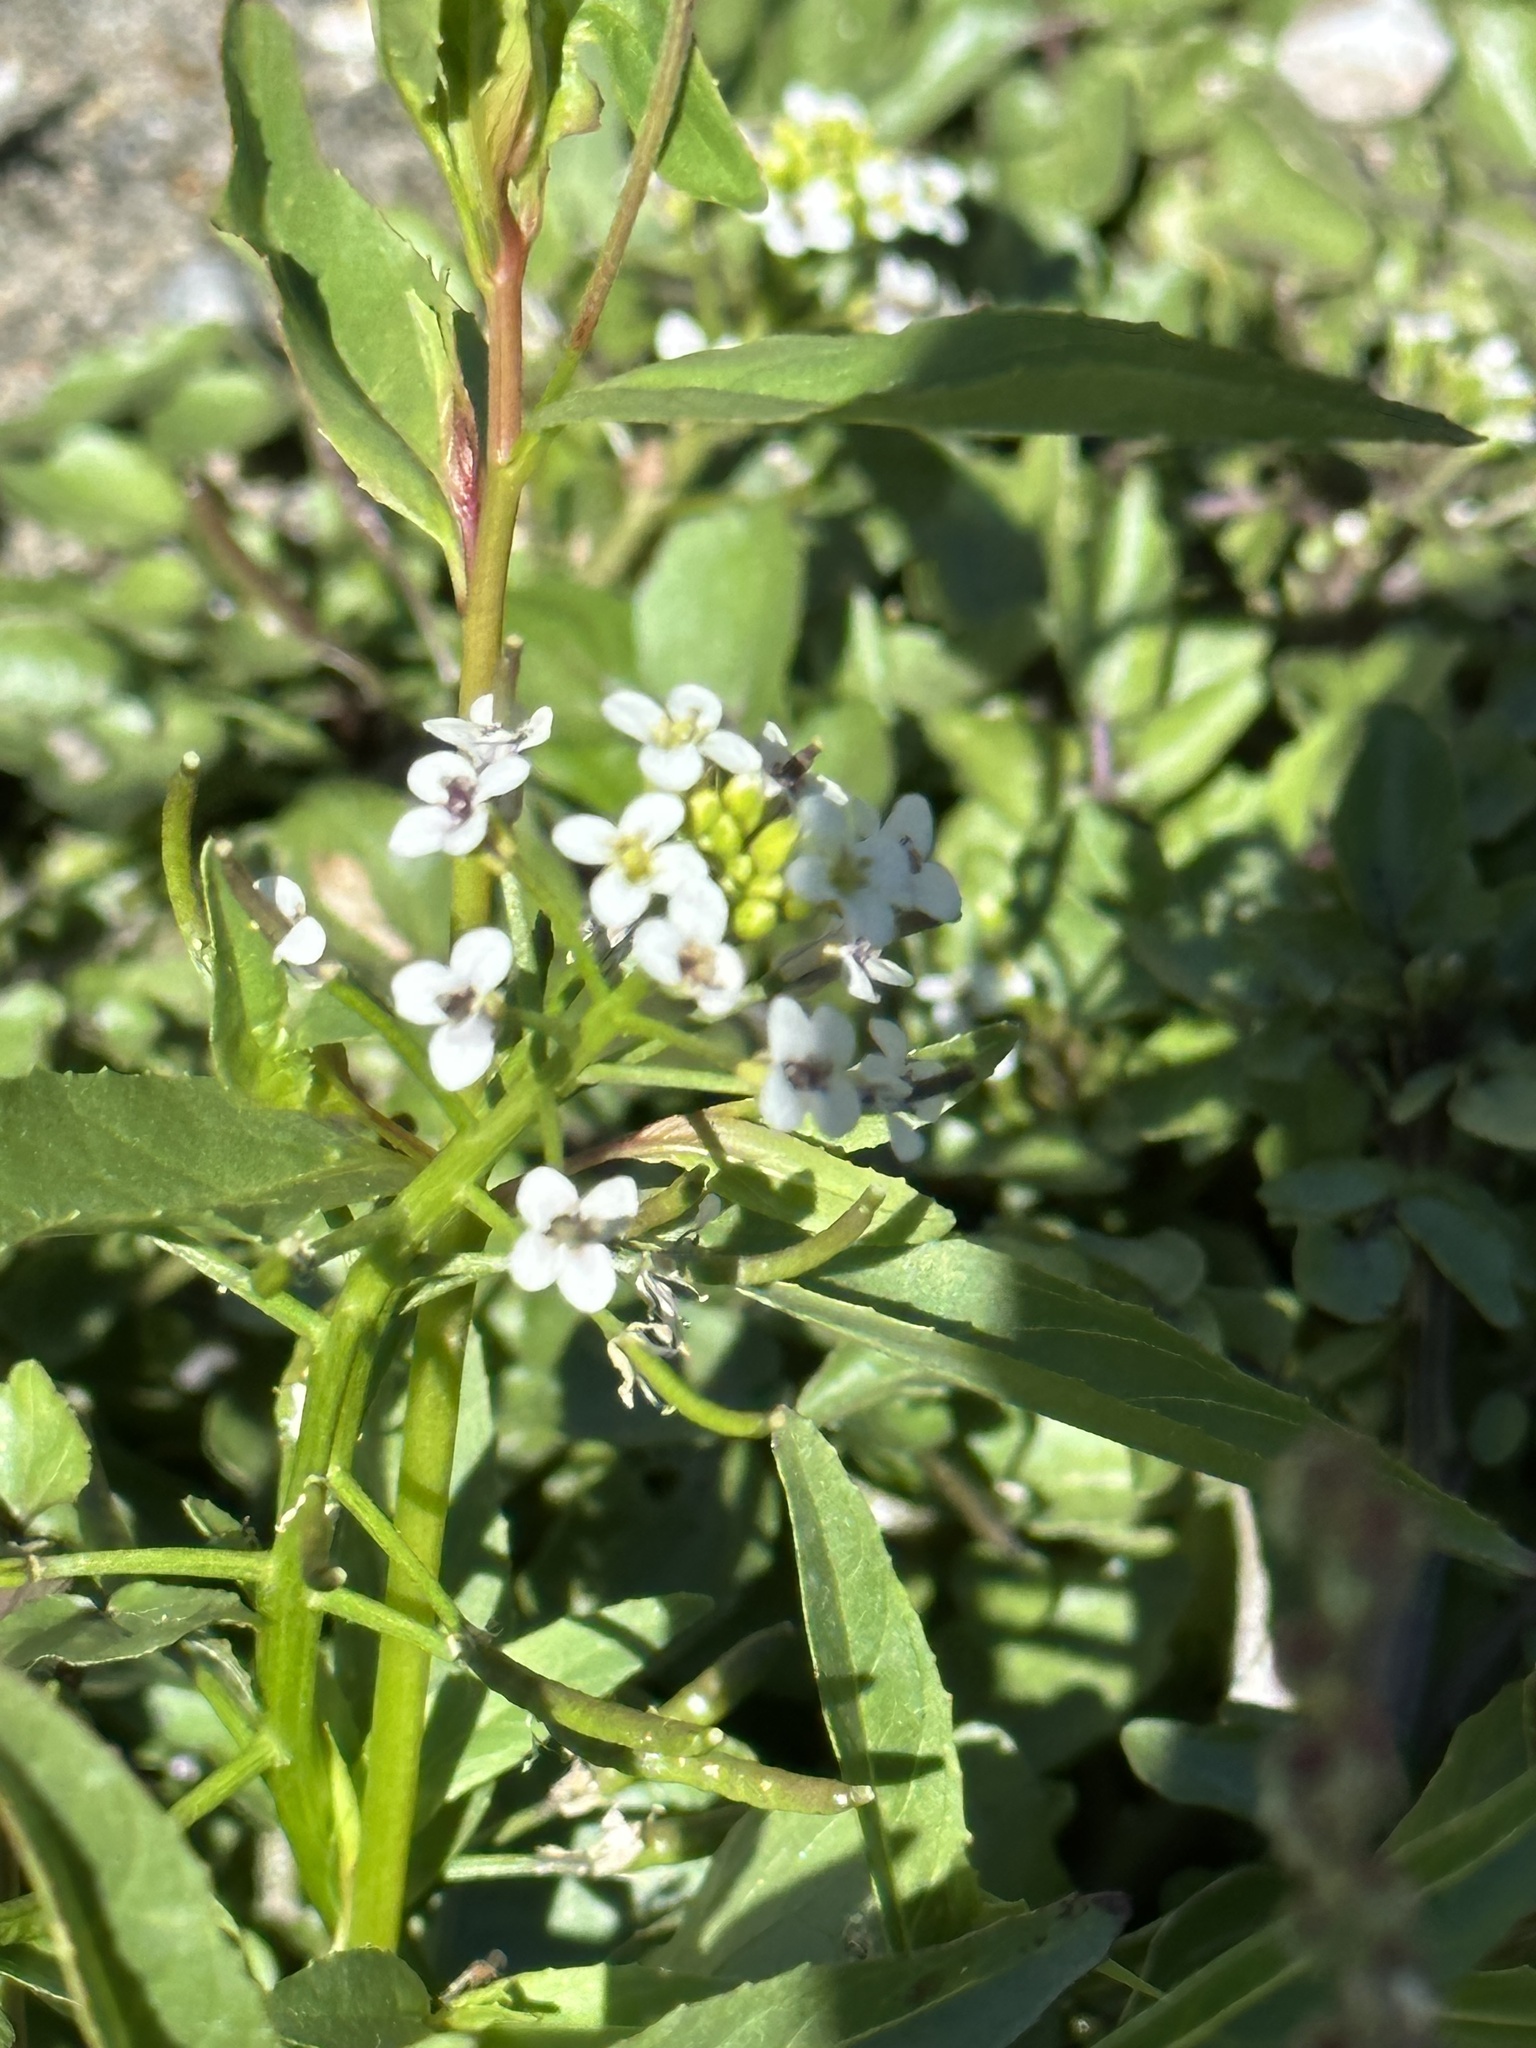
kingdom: Plantae
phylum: Tracheophyta
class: Magnoliopsida
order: Brassicales
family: Brassicaceae
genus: Nasturtium
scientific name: Nasturtium officinale
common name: Watercress
